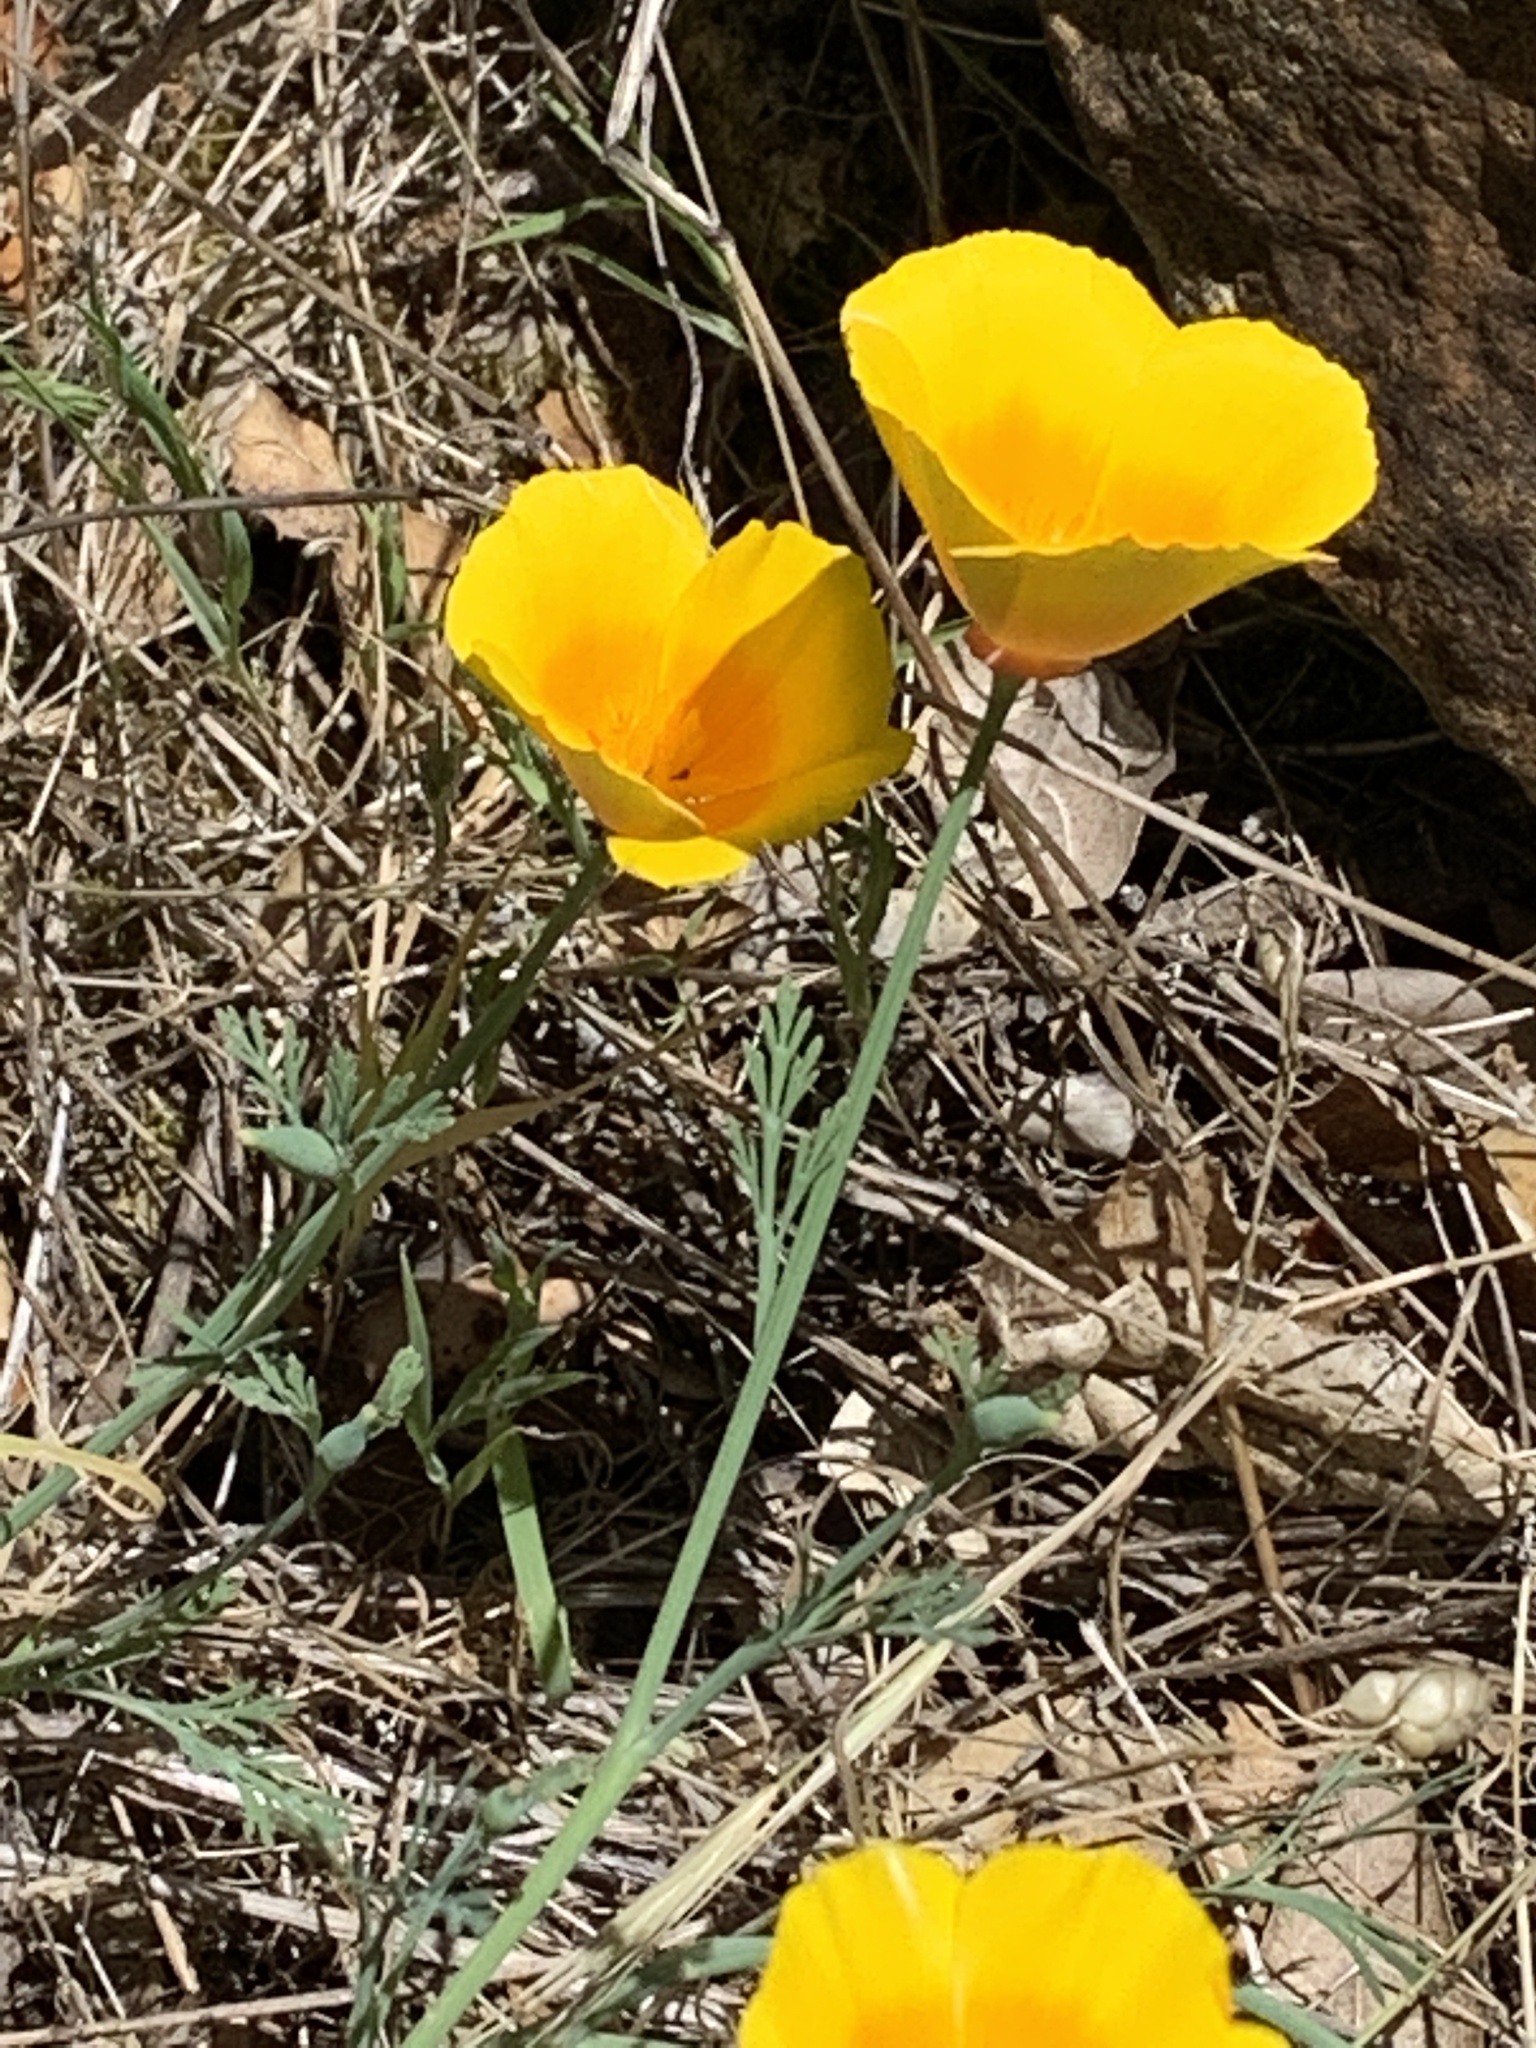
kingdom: Plantae
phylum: Tracheophyta
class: Magnoliopsida
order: Ranunculales
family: Papaveraceae
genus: Eschscholzia
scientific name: Eschscholzia californica
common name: California poppy
